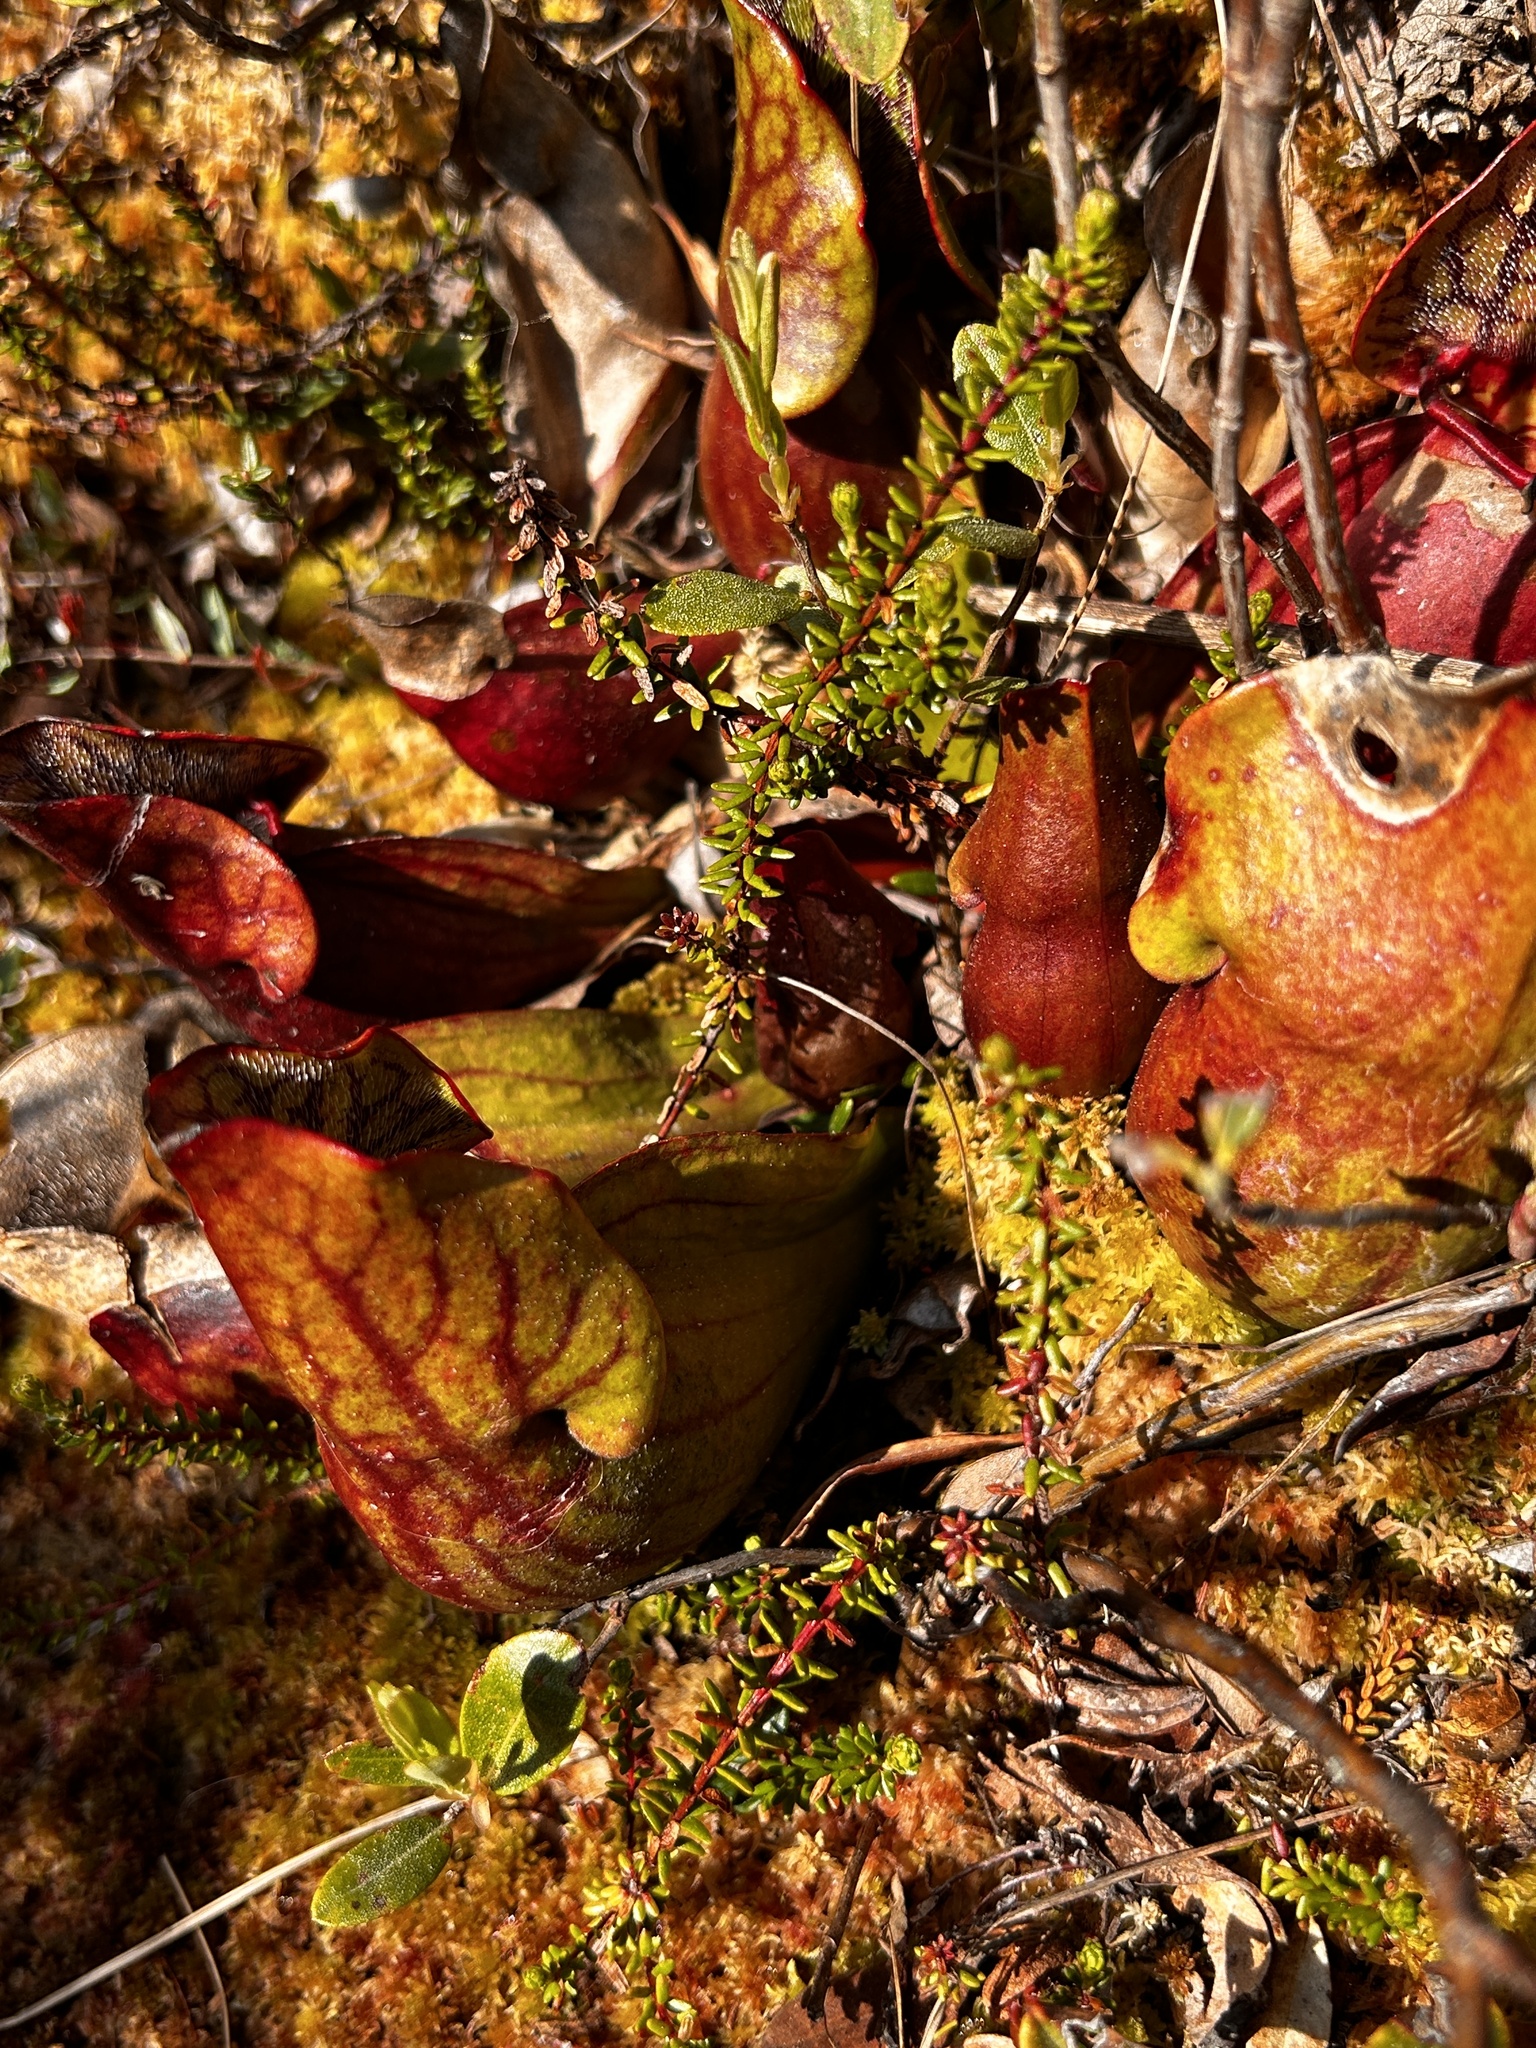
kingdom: Plantae
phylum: Tracheophyta
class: Magnoliopsida
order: Ericales
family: Sarraceniaceae
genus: Sarracenia
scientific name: Sarracenia purpurea
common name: Pitcherplant
